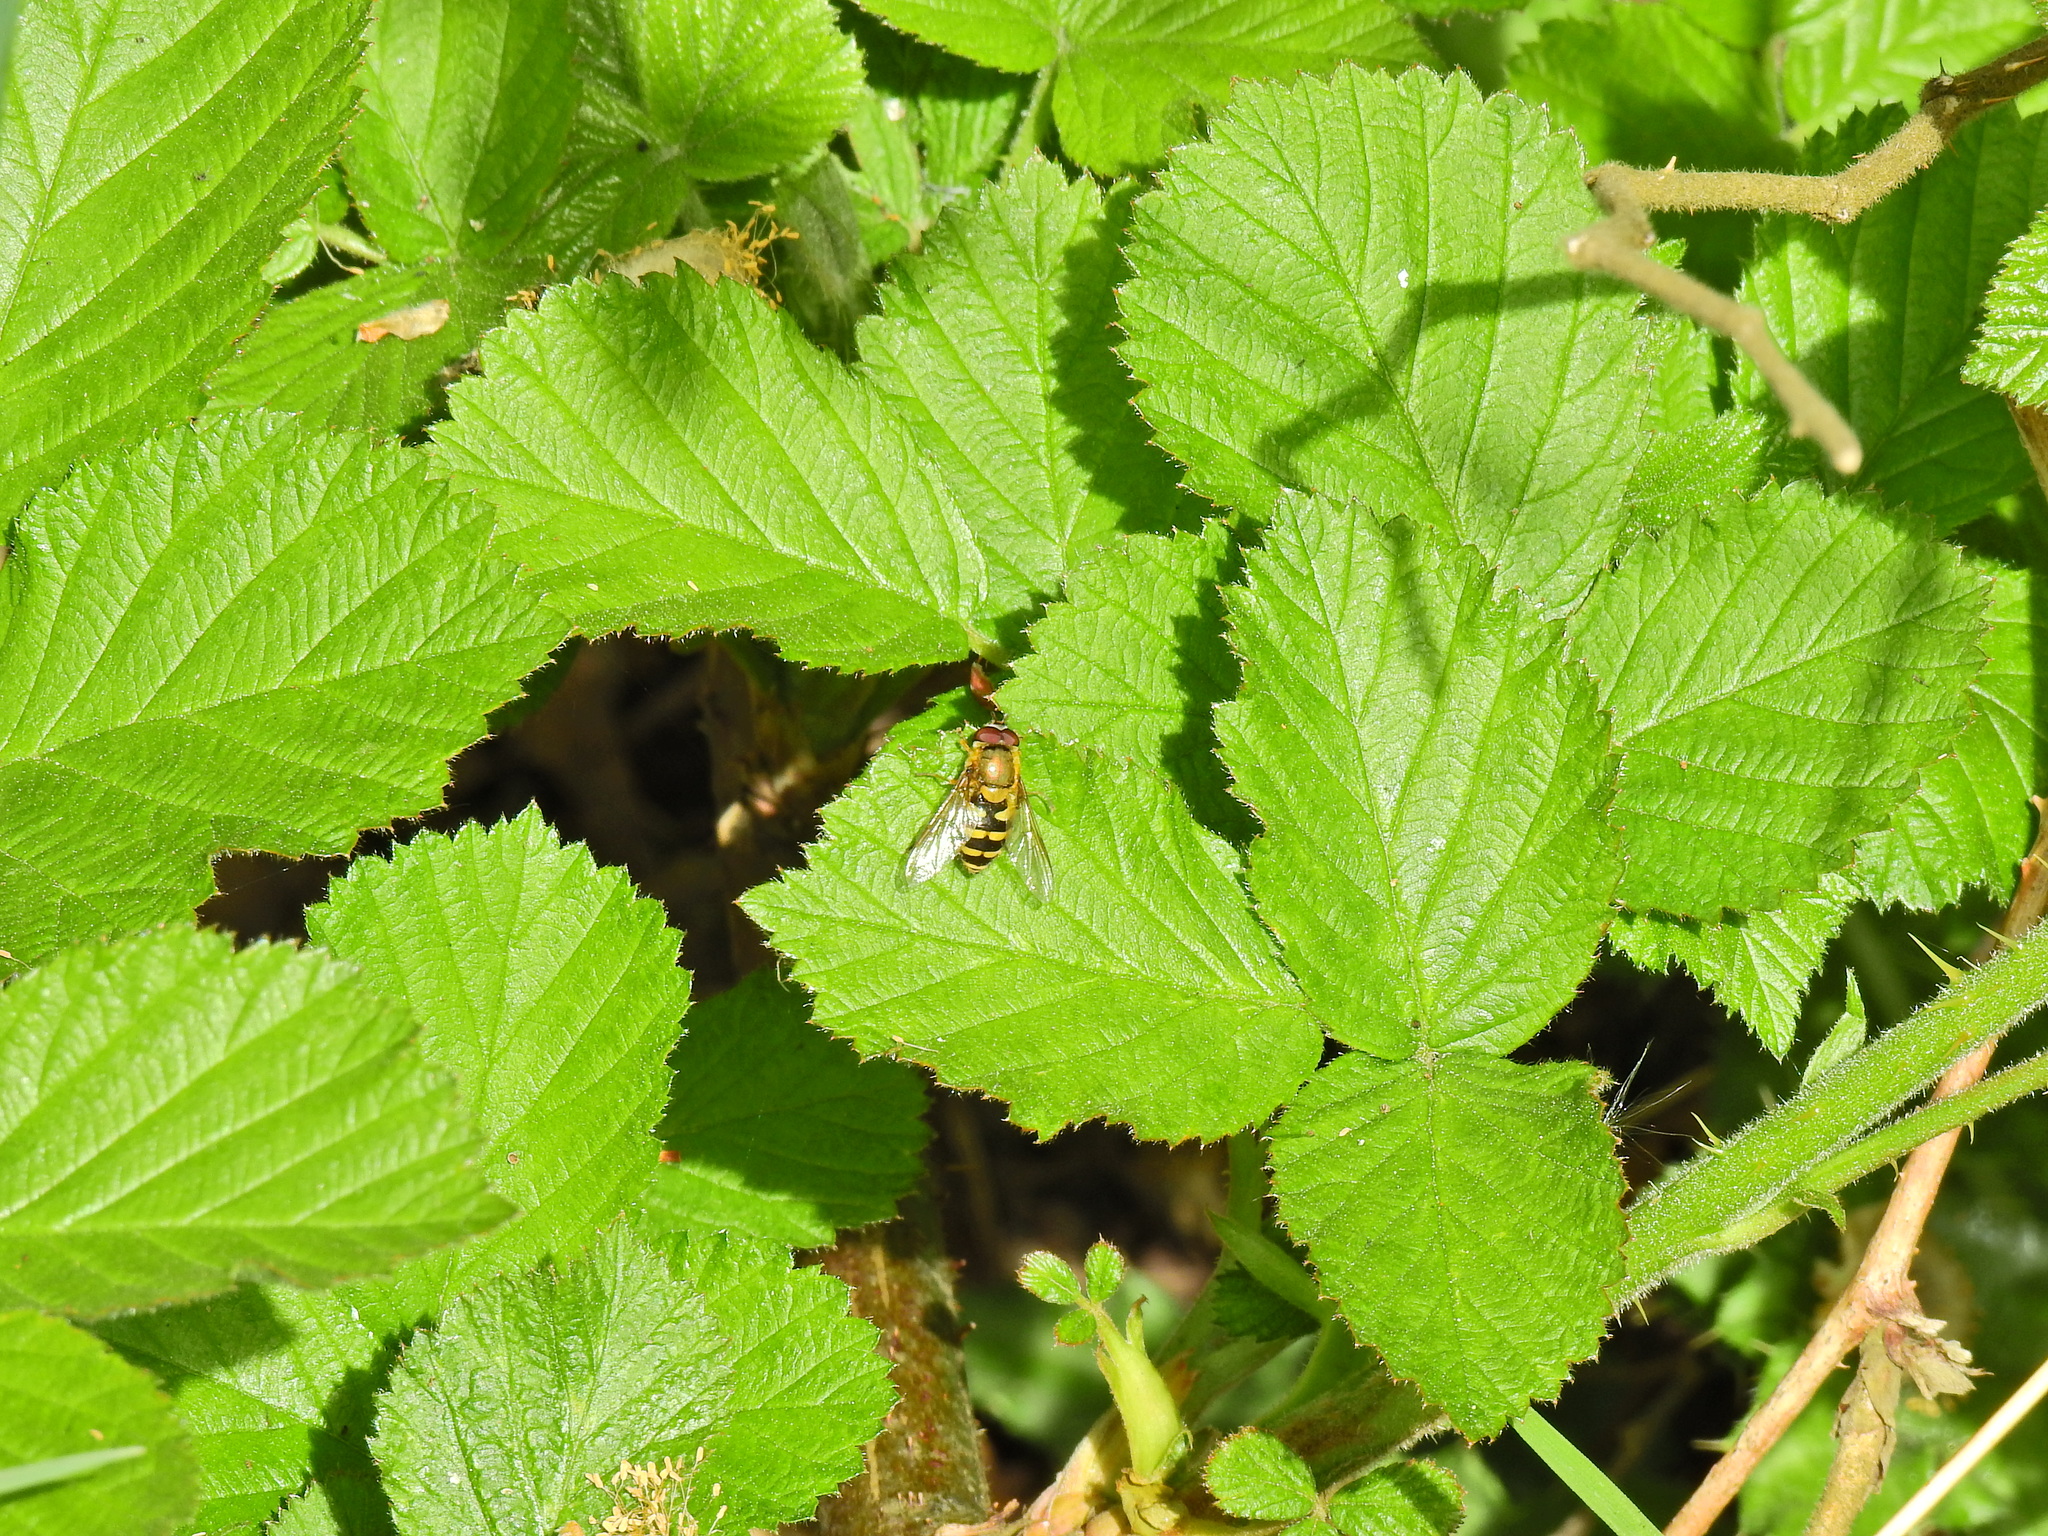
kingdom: Animalia
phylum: Arthropoda
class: Insecta
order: Diptera
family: Syrphidae
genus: Syrphus
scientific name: Syrphus
